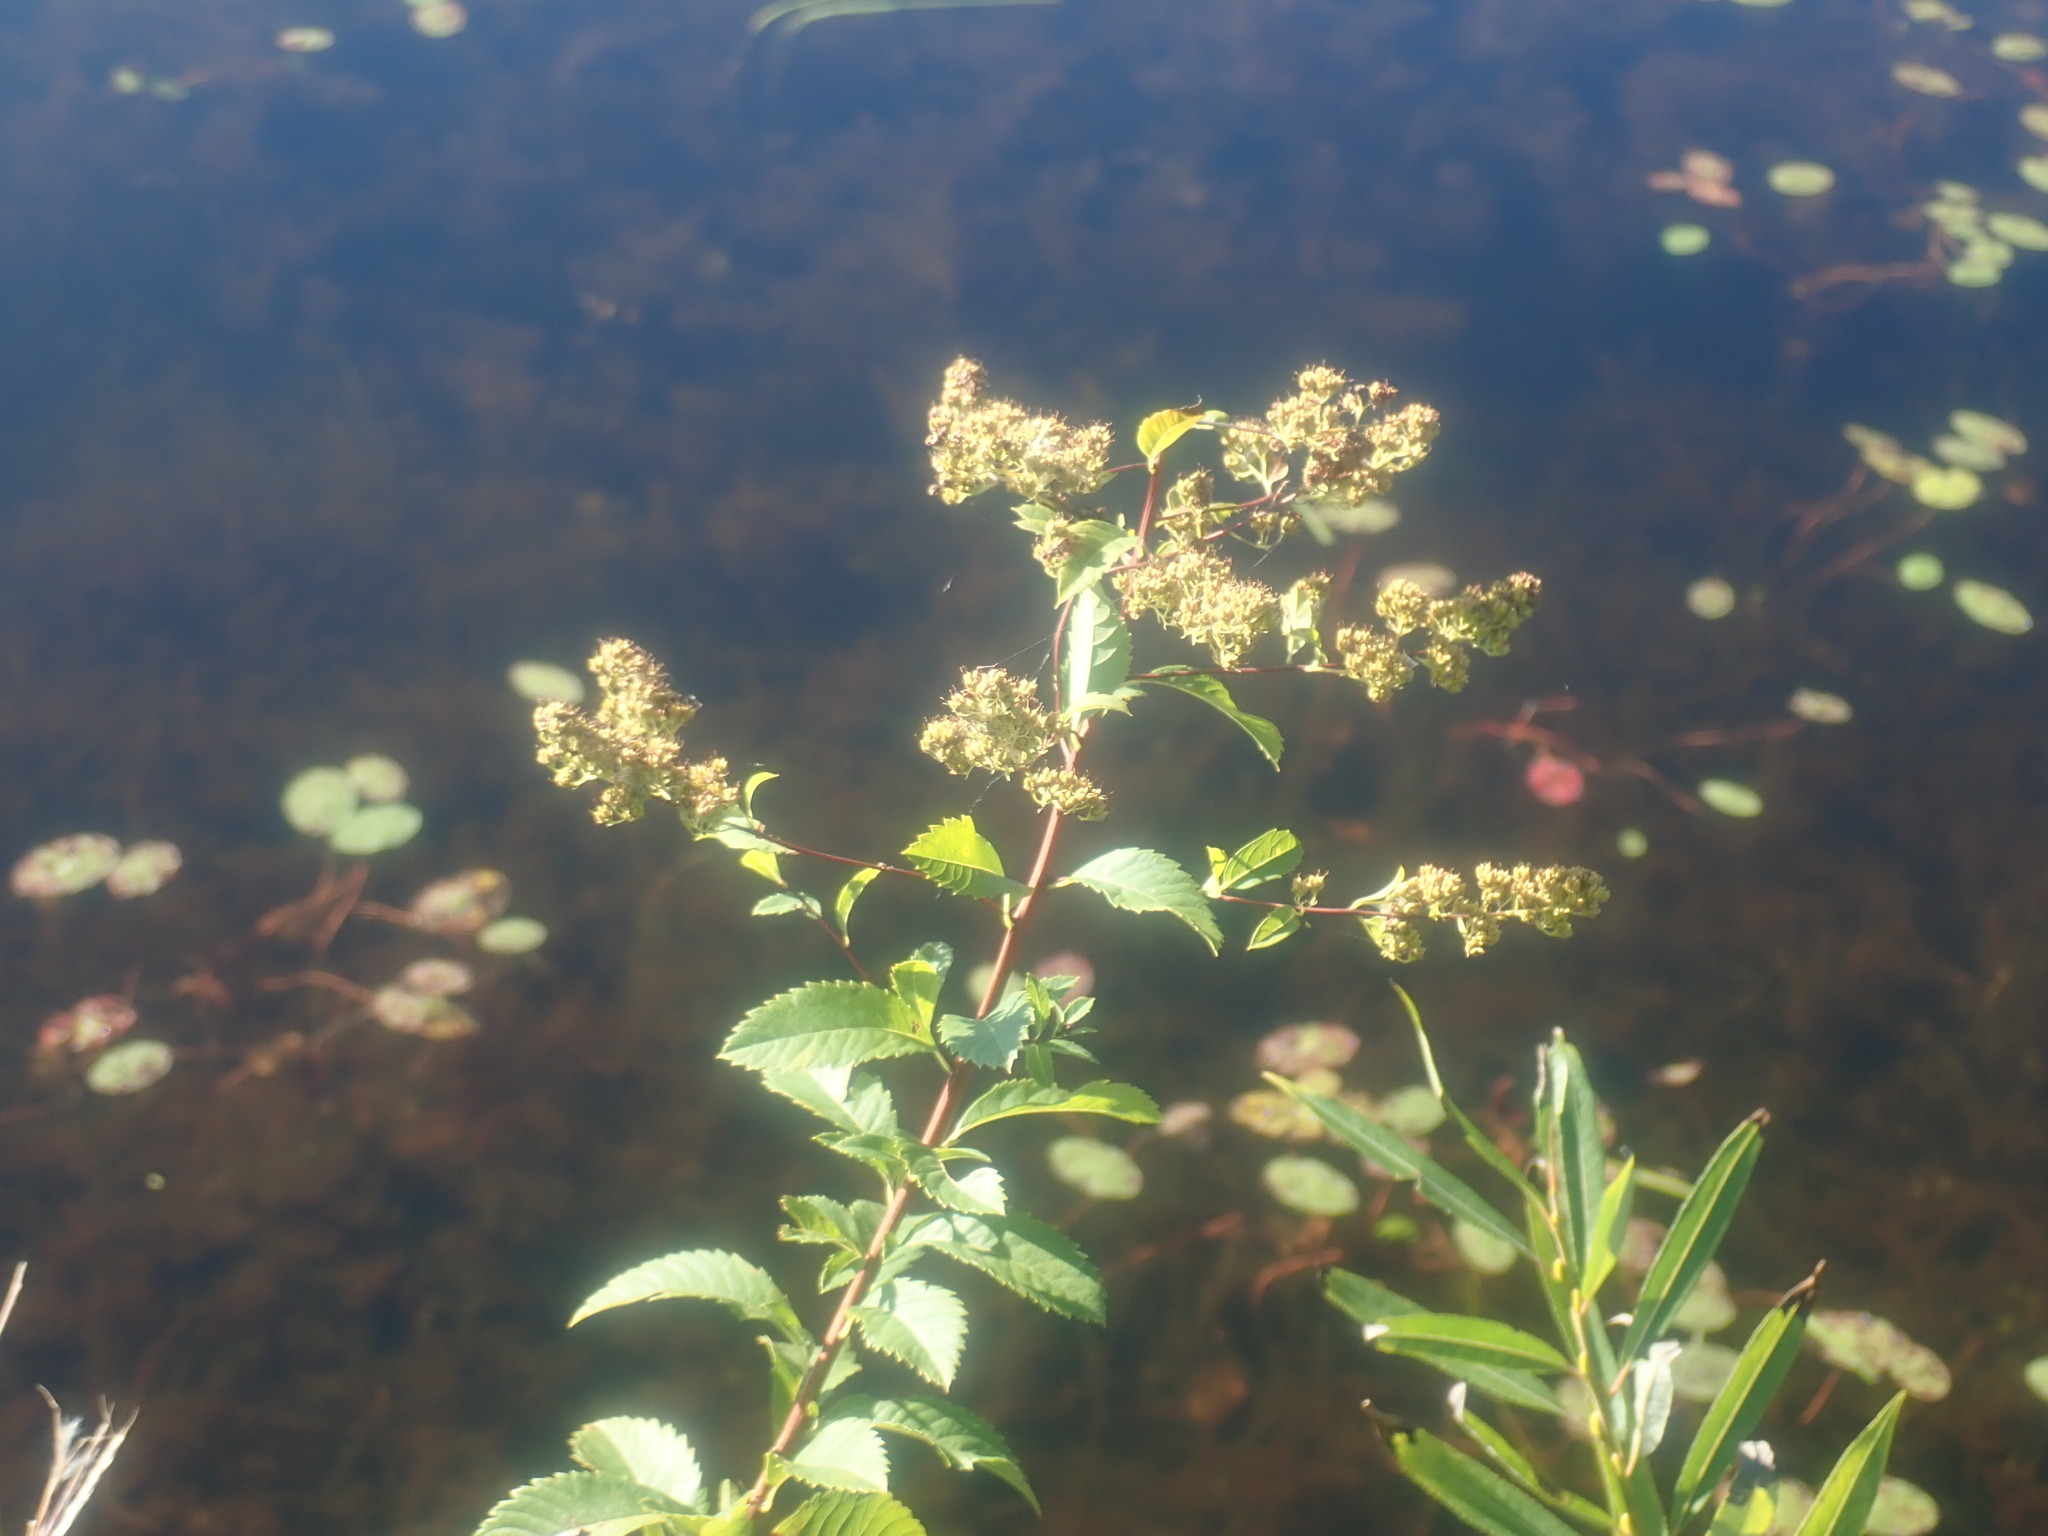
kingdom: Plantae
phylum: Tracheophyta
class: Magnoliopsida
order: Rosales
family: Rosaceae
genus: Spiraea
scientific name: Spiraea alba
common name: Pale bridewort
